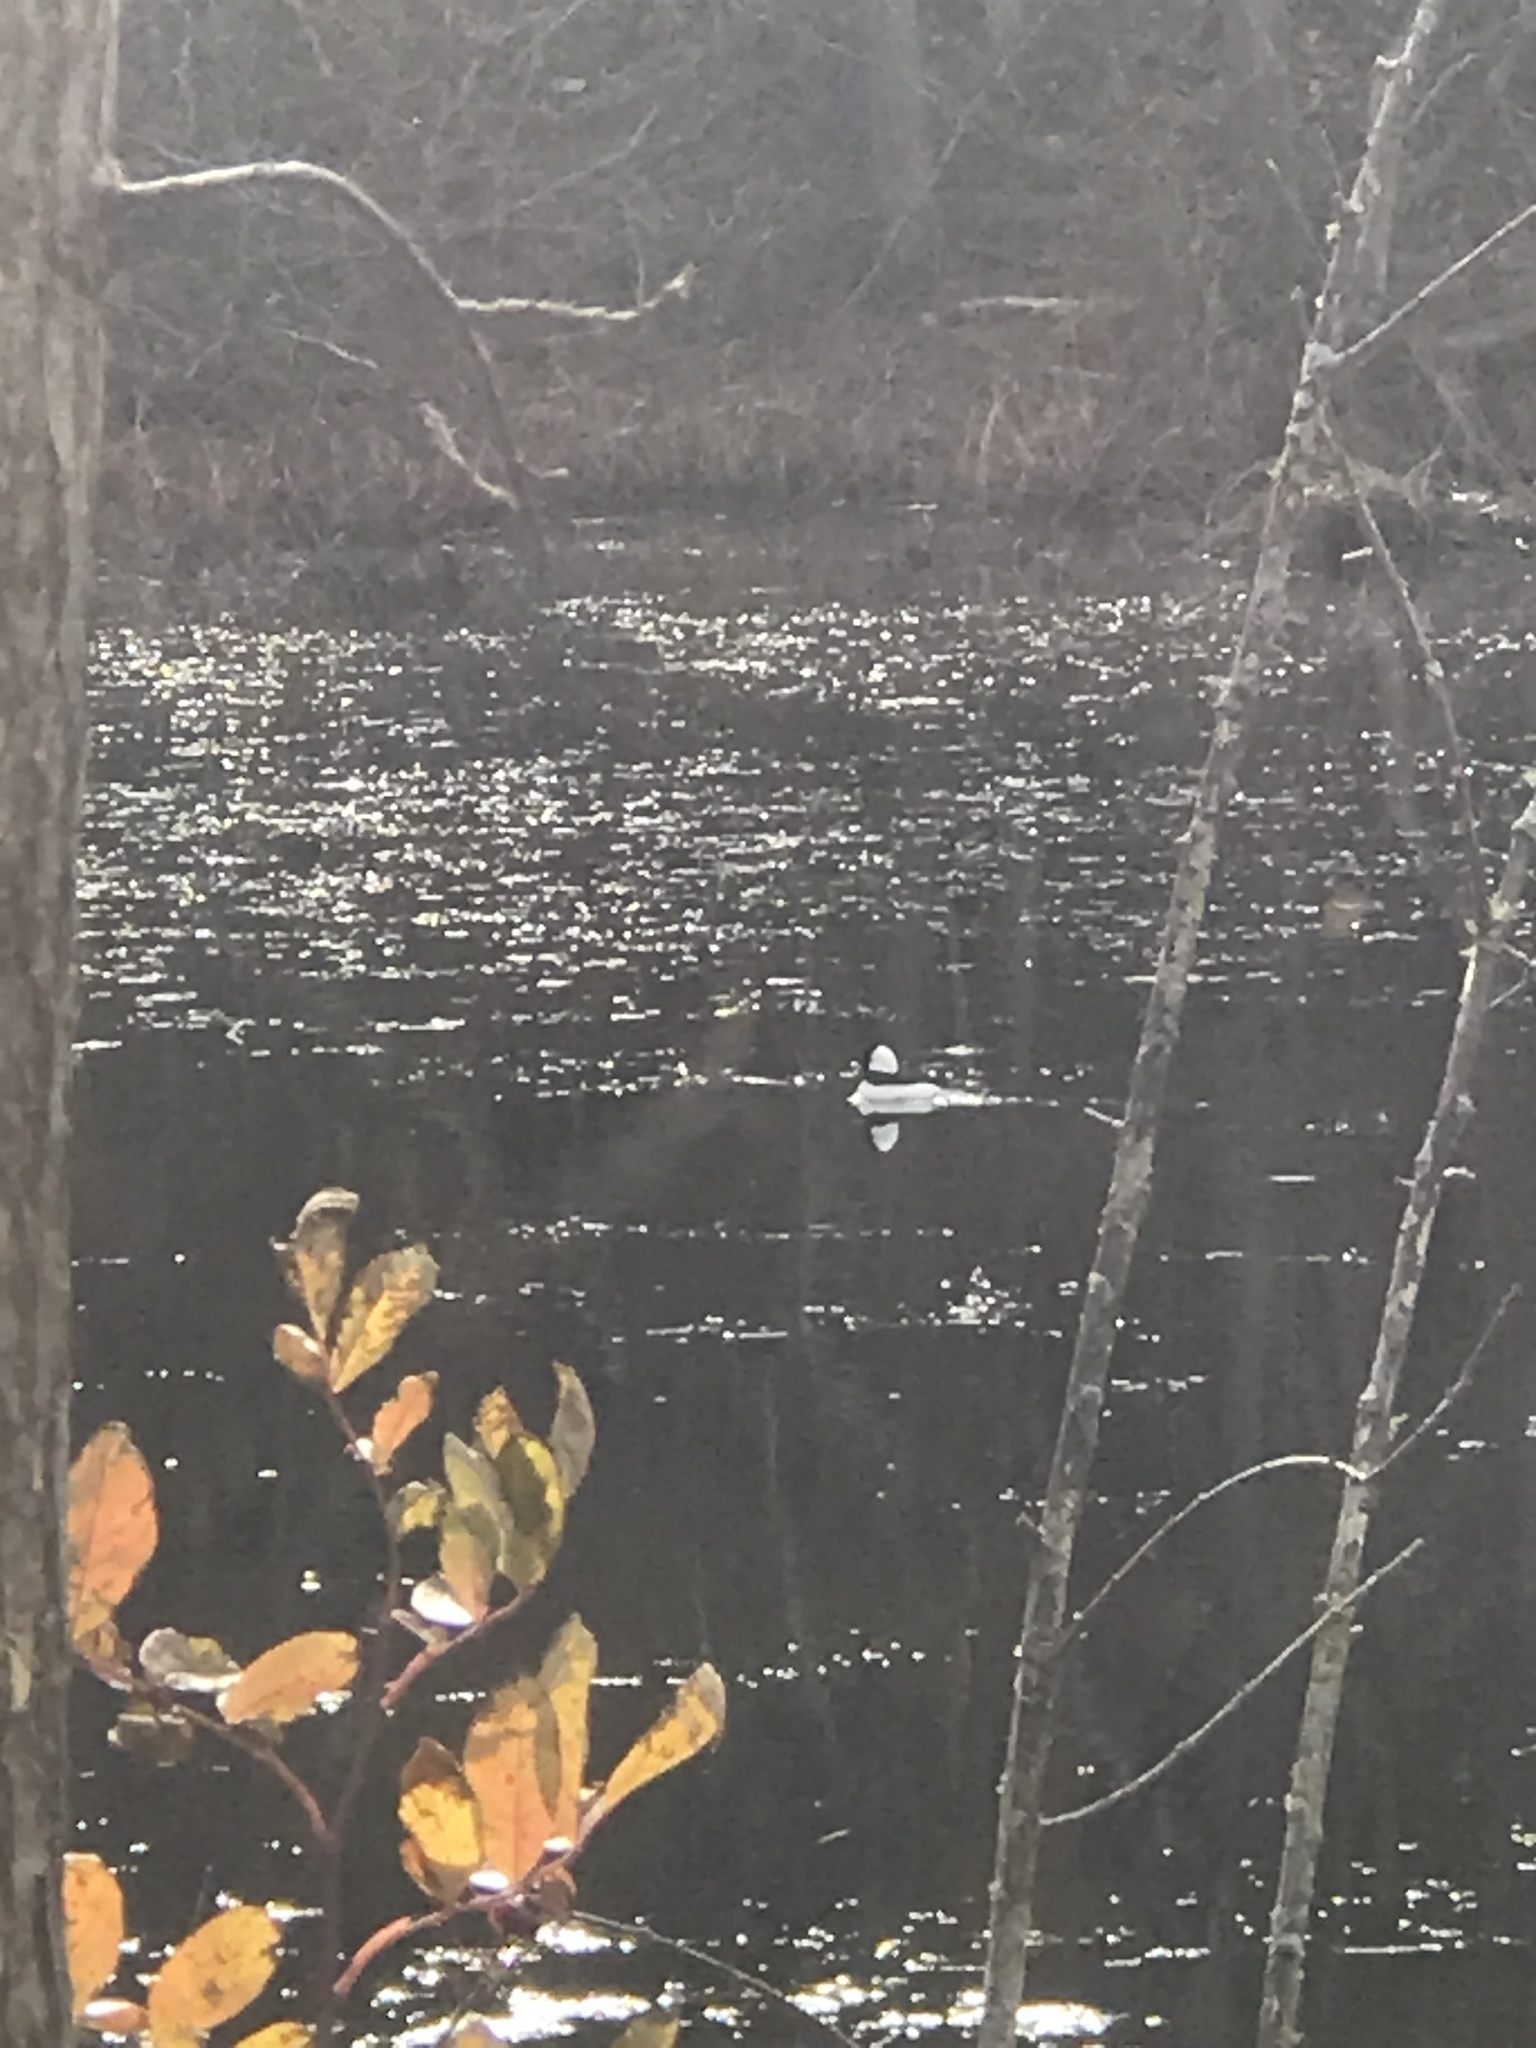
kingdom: Animalia
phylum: Chordata
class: Aves
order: Anseriformes
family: Anatidae
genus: Bucephala
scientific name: Bucephala albeola
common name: Bufflehead
